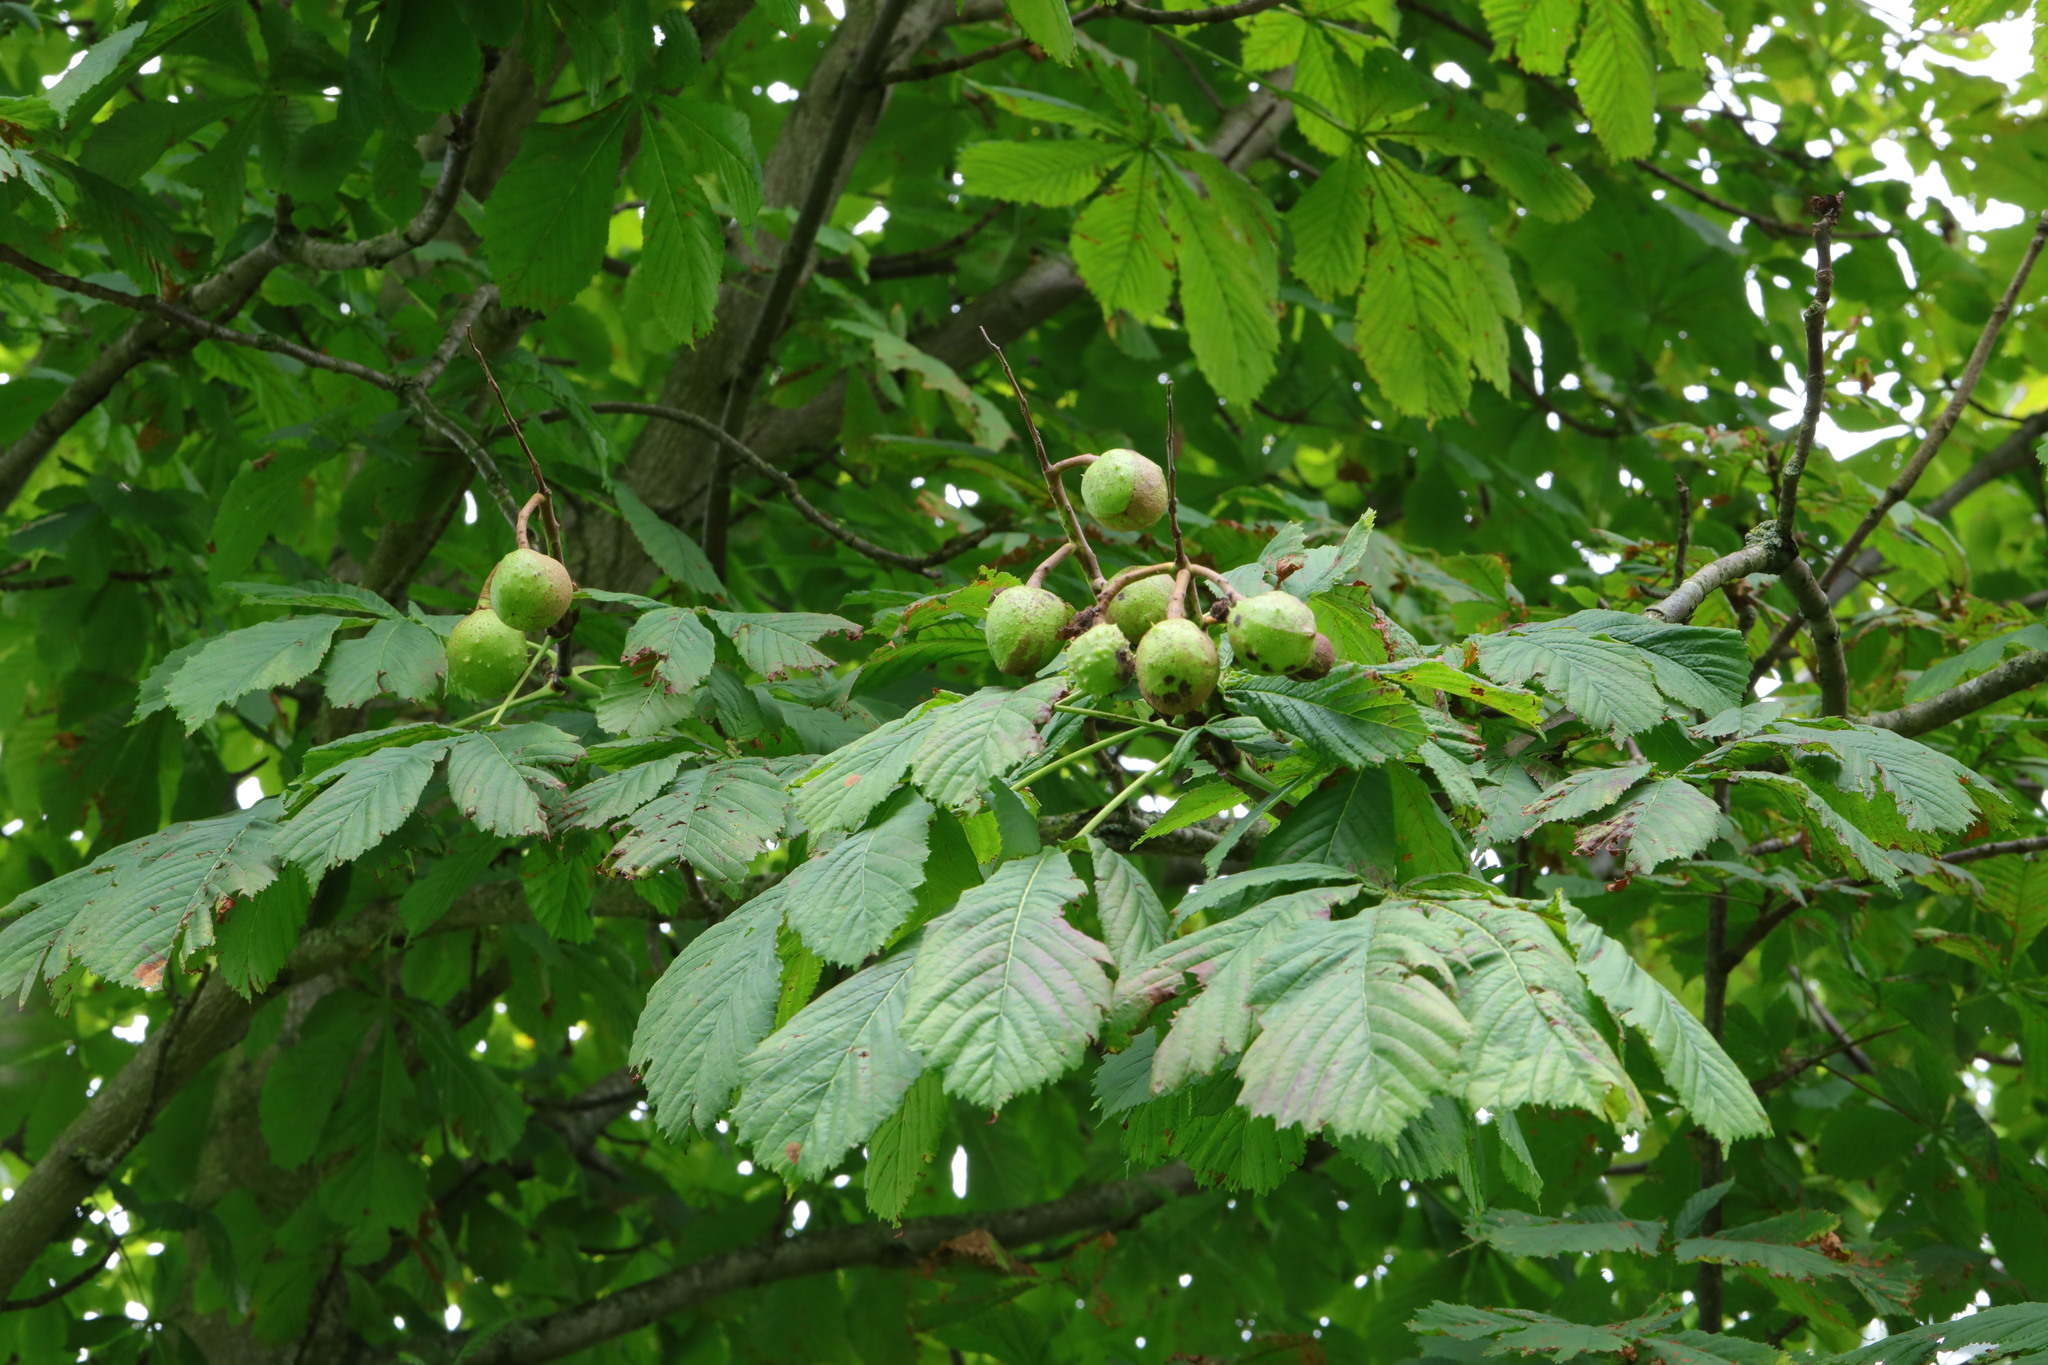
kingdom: Plantae
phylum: Tracheophyta
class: Magnoliopsida
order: Sapindales
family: Sapindaceae
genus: Aesculus
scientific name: Aesculus hippocastanum
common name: Horse-chestnut
